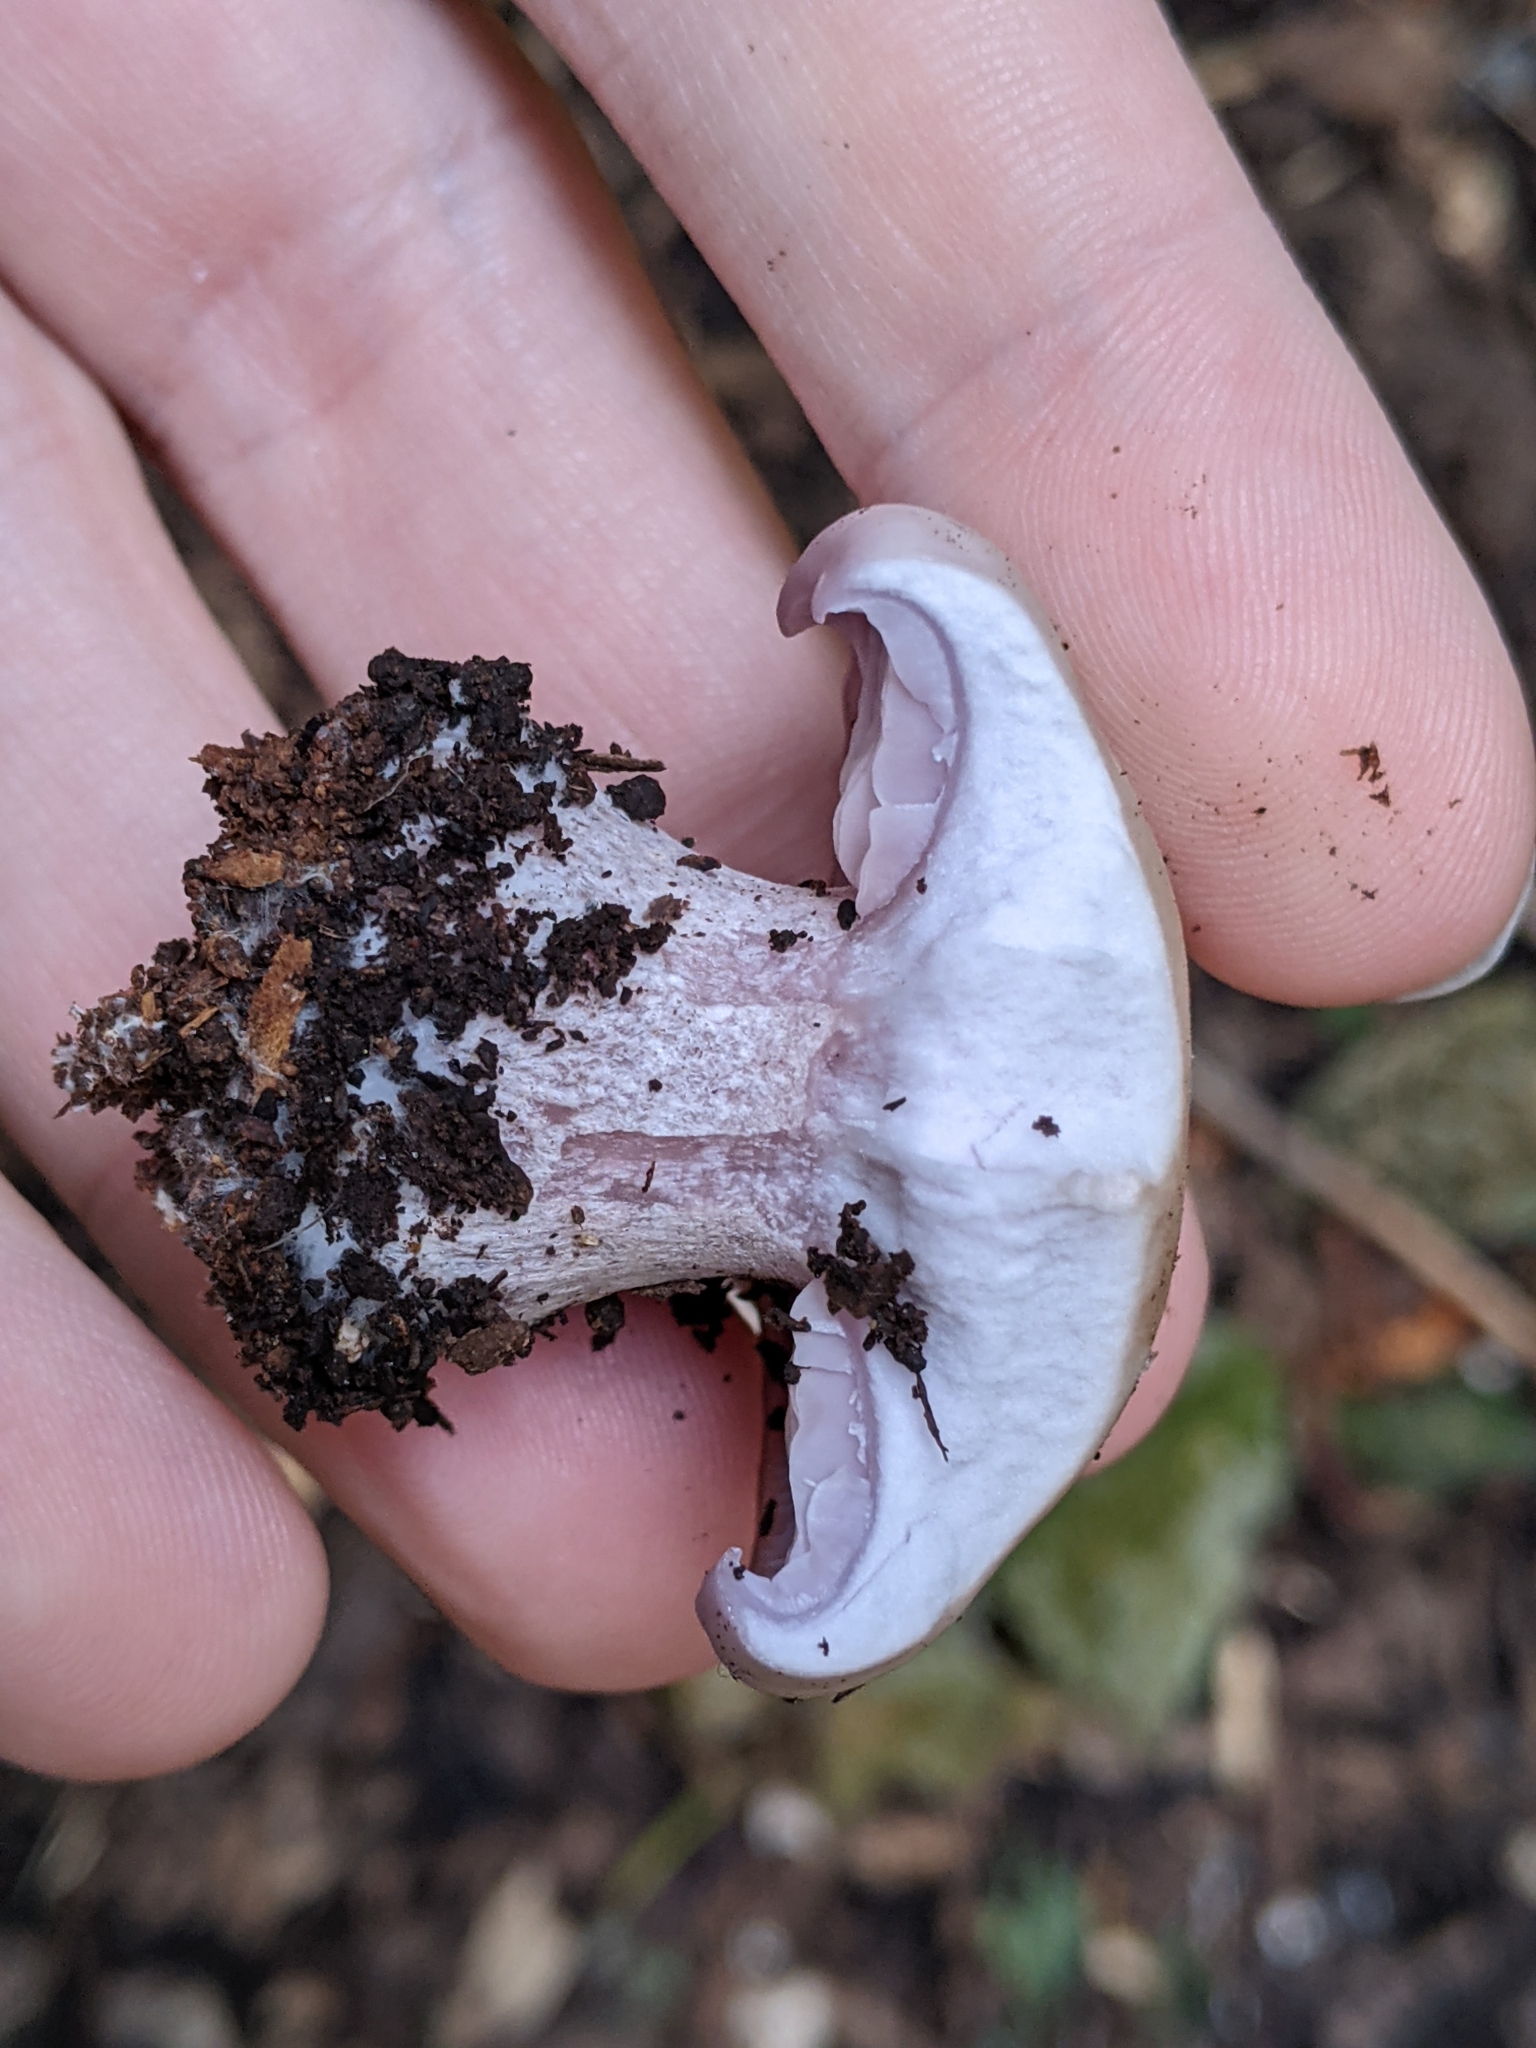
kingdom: Fungi
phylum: Basidiomycota
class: Agaricomycetes
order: Agaricales
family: Tricholomataceae
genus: Collybia
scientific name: Collybia
